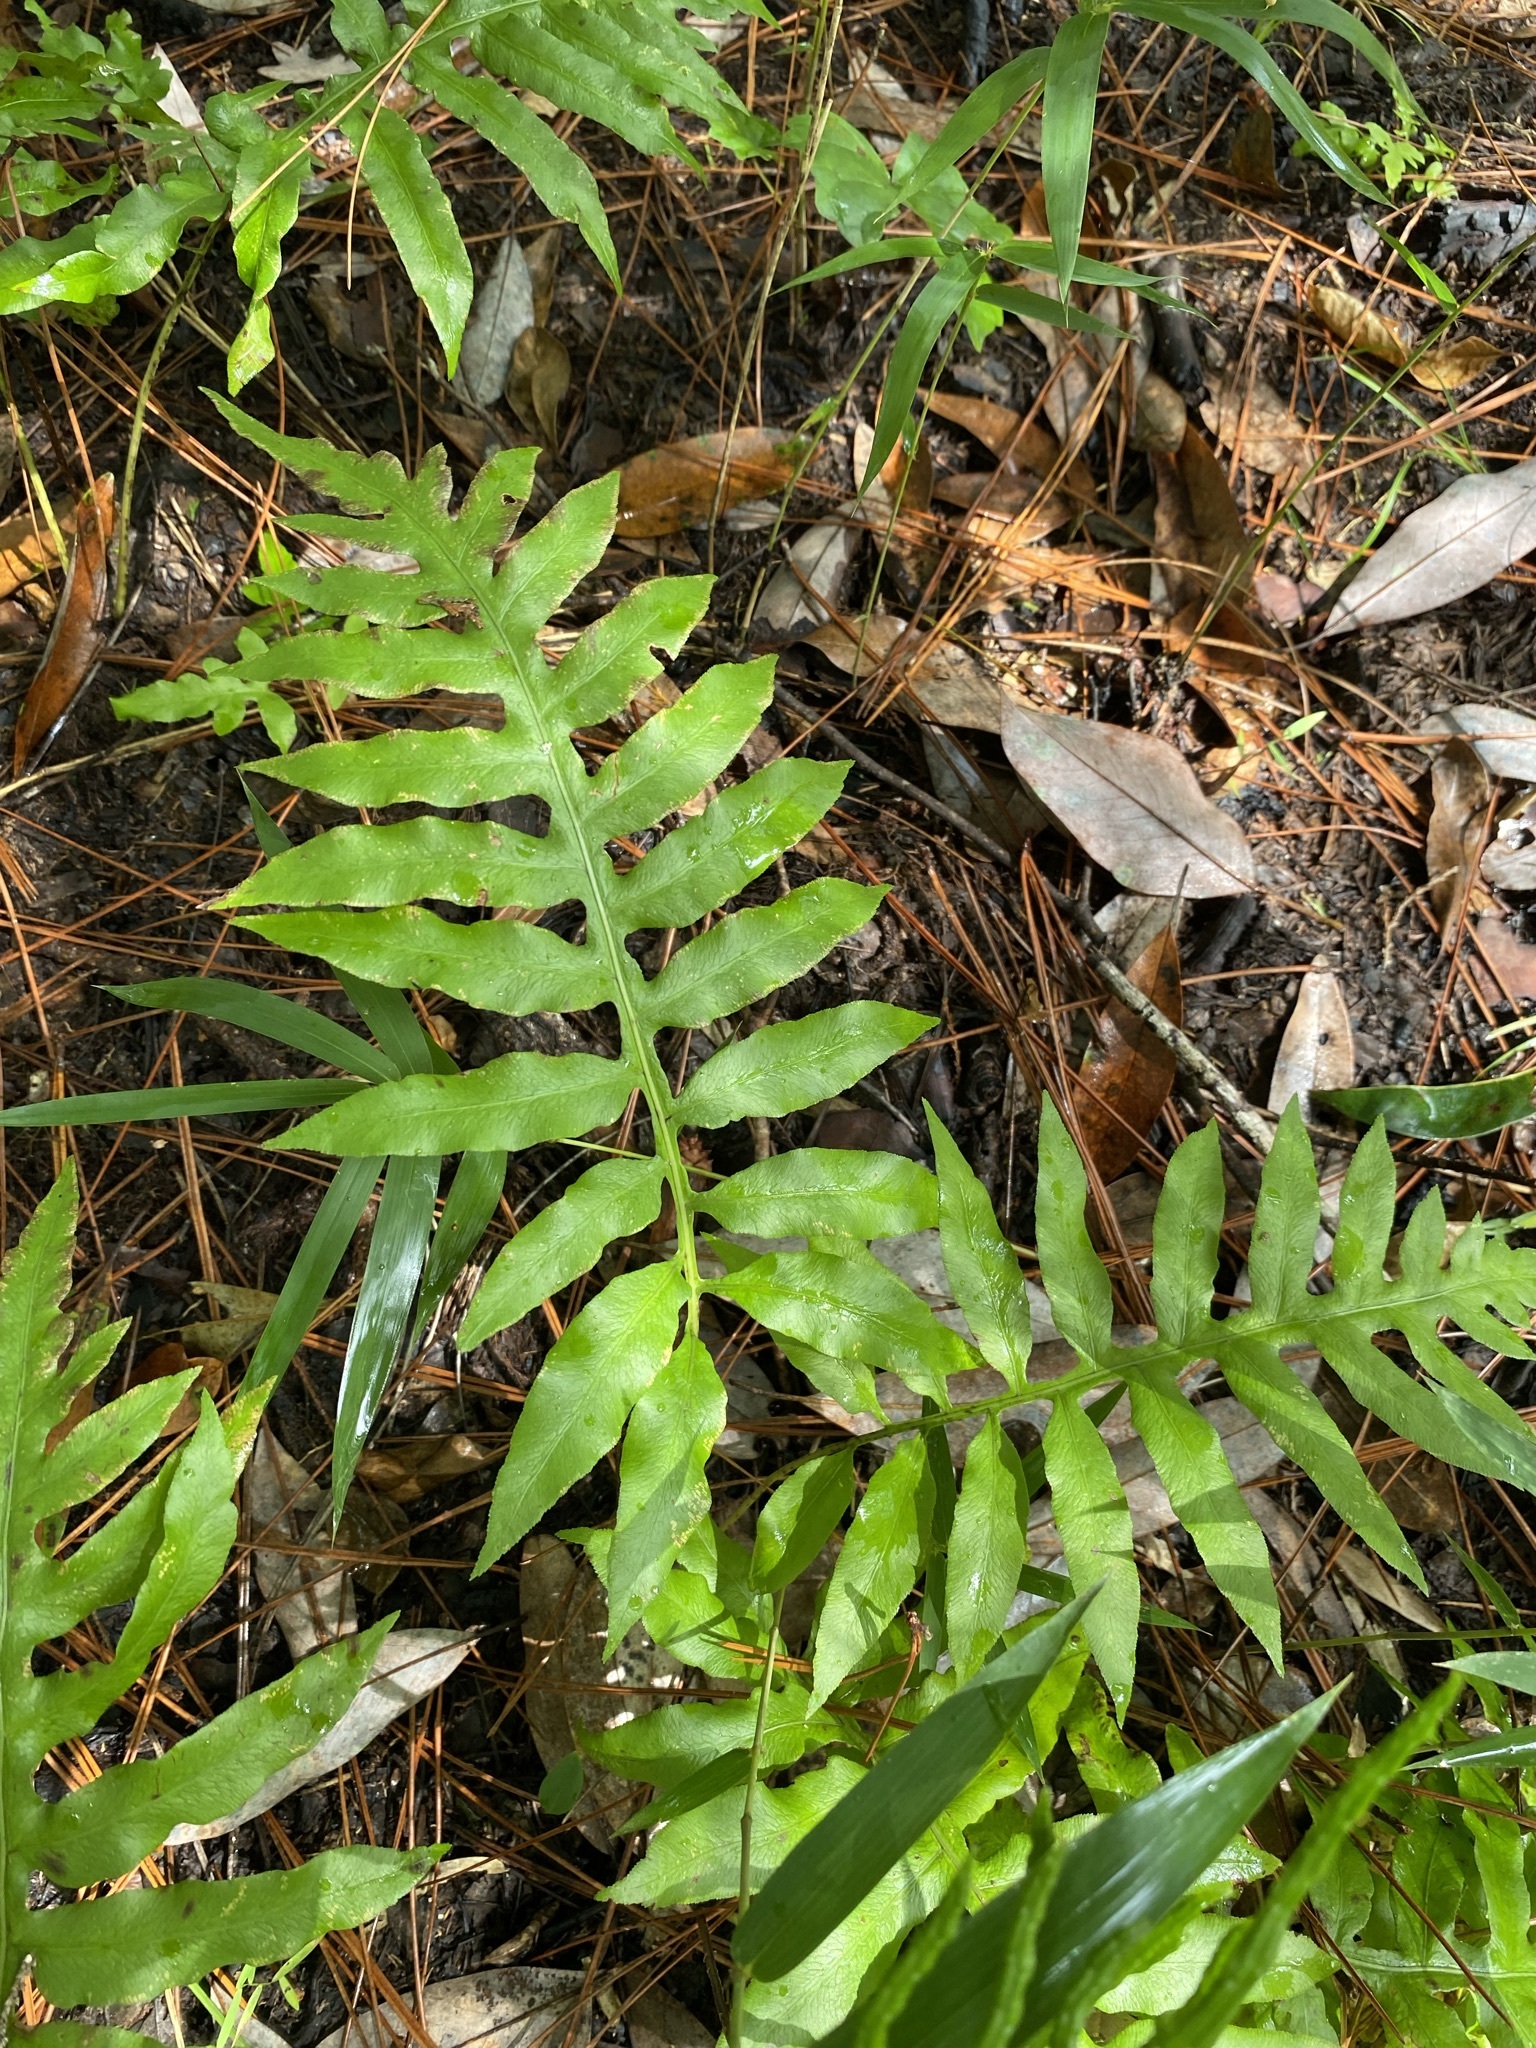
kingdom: Plantae
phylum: Tracheophyta
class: Polypodiopsida
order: Polypodiales
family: Blechnaceae
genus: Lorinseria
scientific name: Lorinseria areolata
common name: Dwarf chain fern
